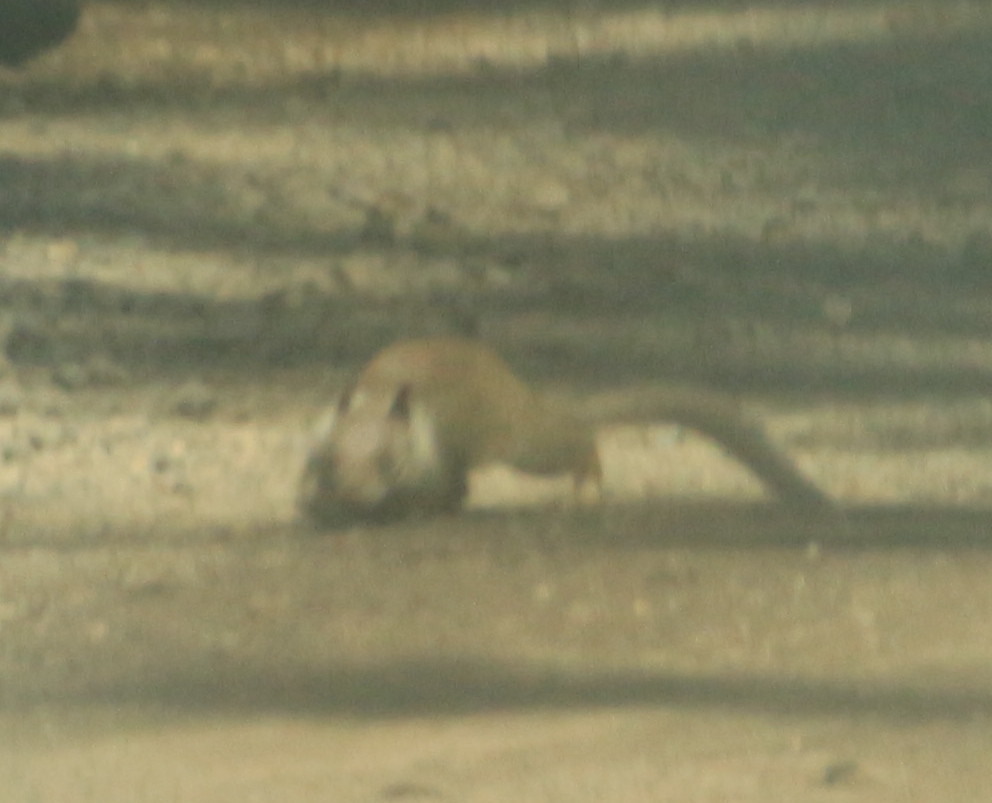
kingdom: Animalia
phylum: Chordata
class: Mammalia
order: Rodentia
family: Sciuridae
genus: Otospermophilus
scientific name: Otospermophilus beecheyi
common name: California ground squirrel
